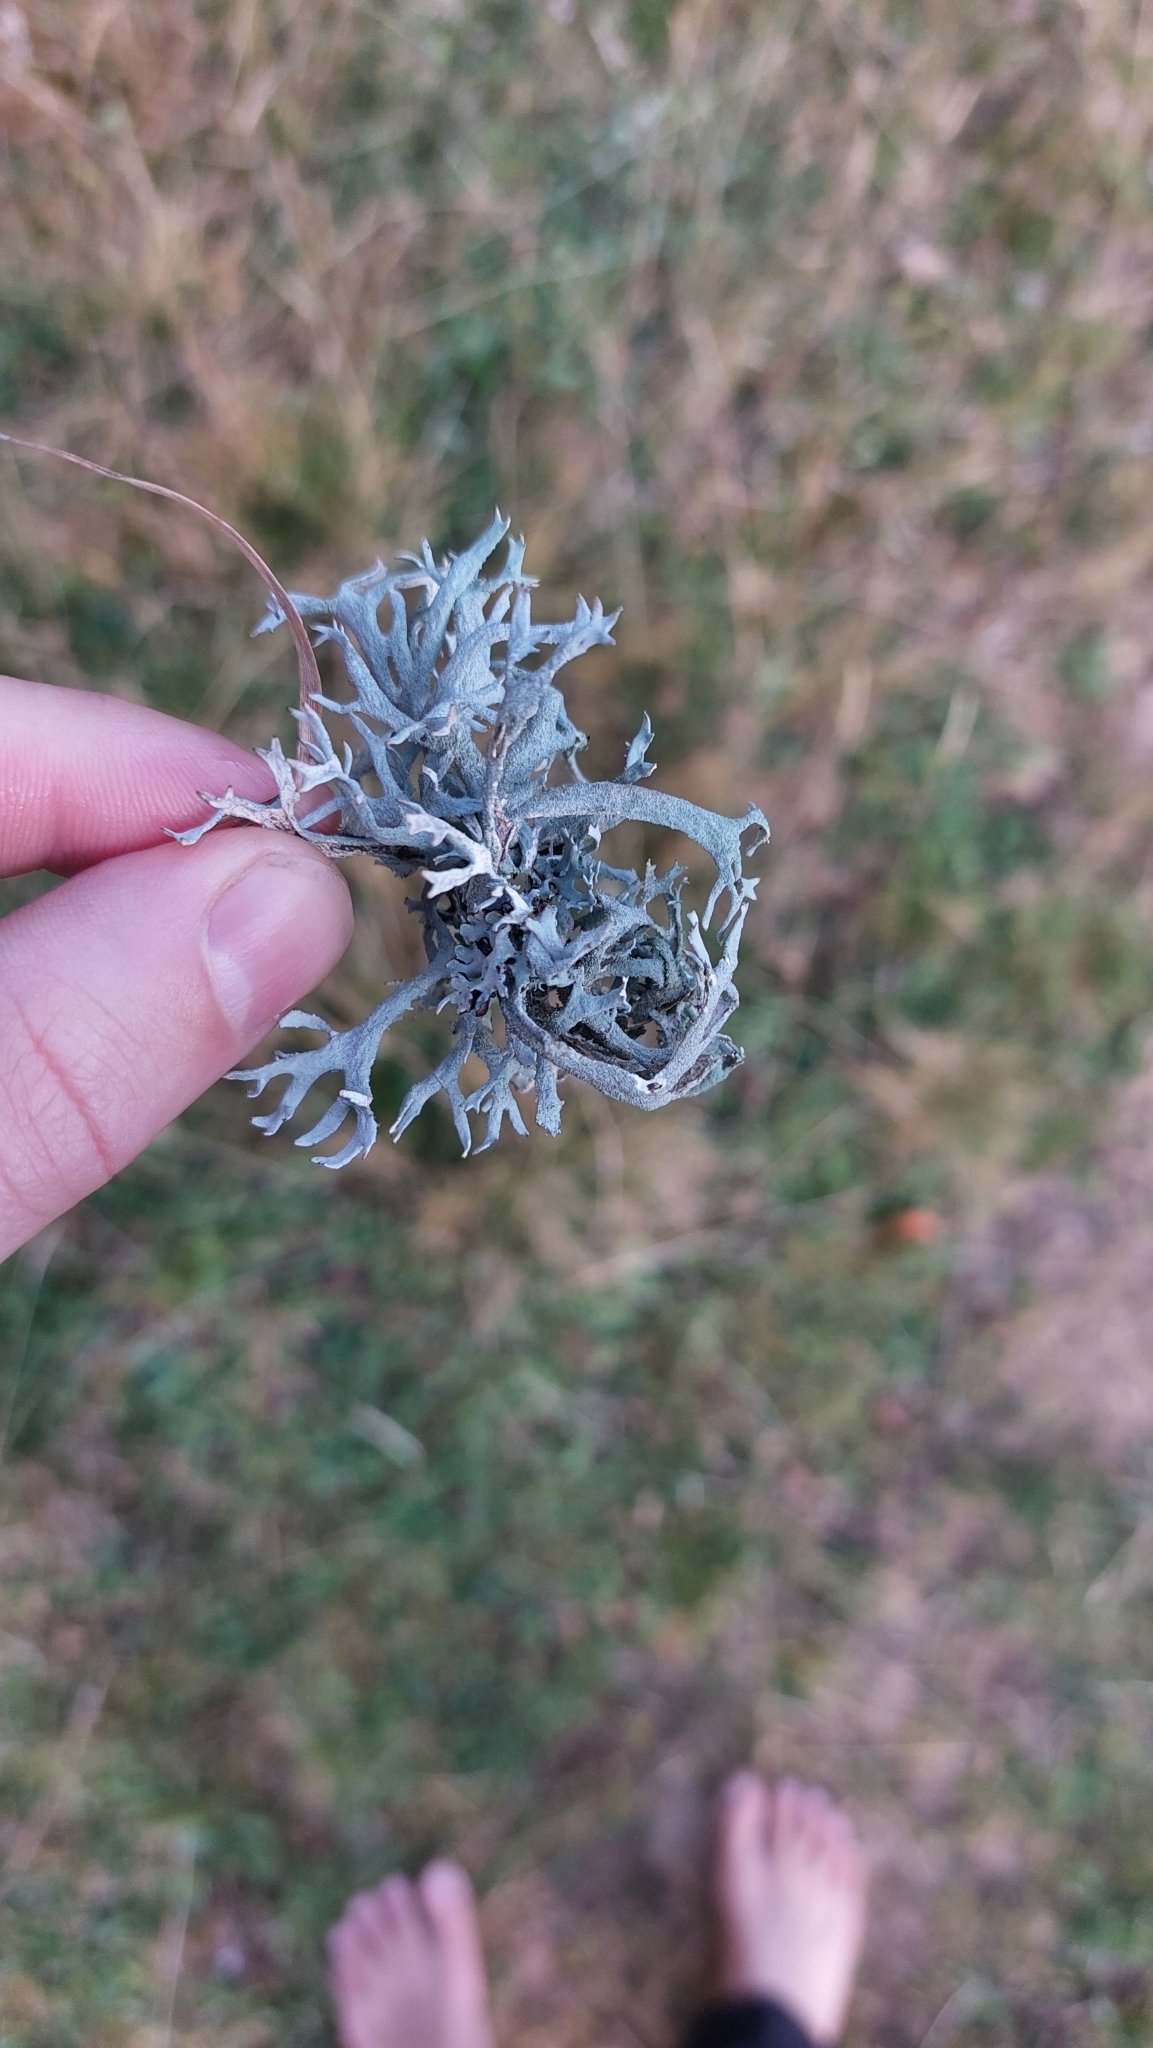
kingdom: Fungi
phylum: Ascomycota
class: Lecanoromycetes
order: Lecanorales
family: Parmeliaceae
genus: Pseudevernia
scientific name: Pseudevernia furfuracea
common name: Tree moss
